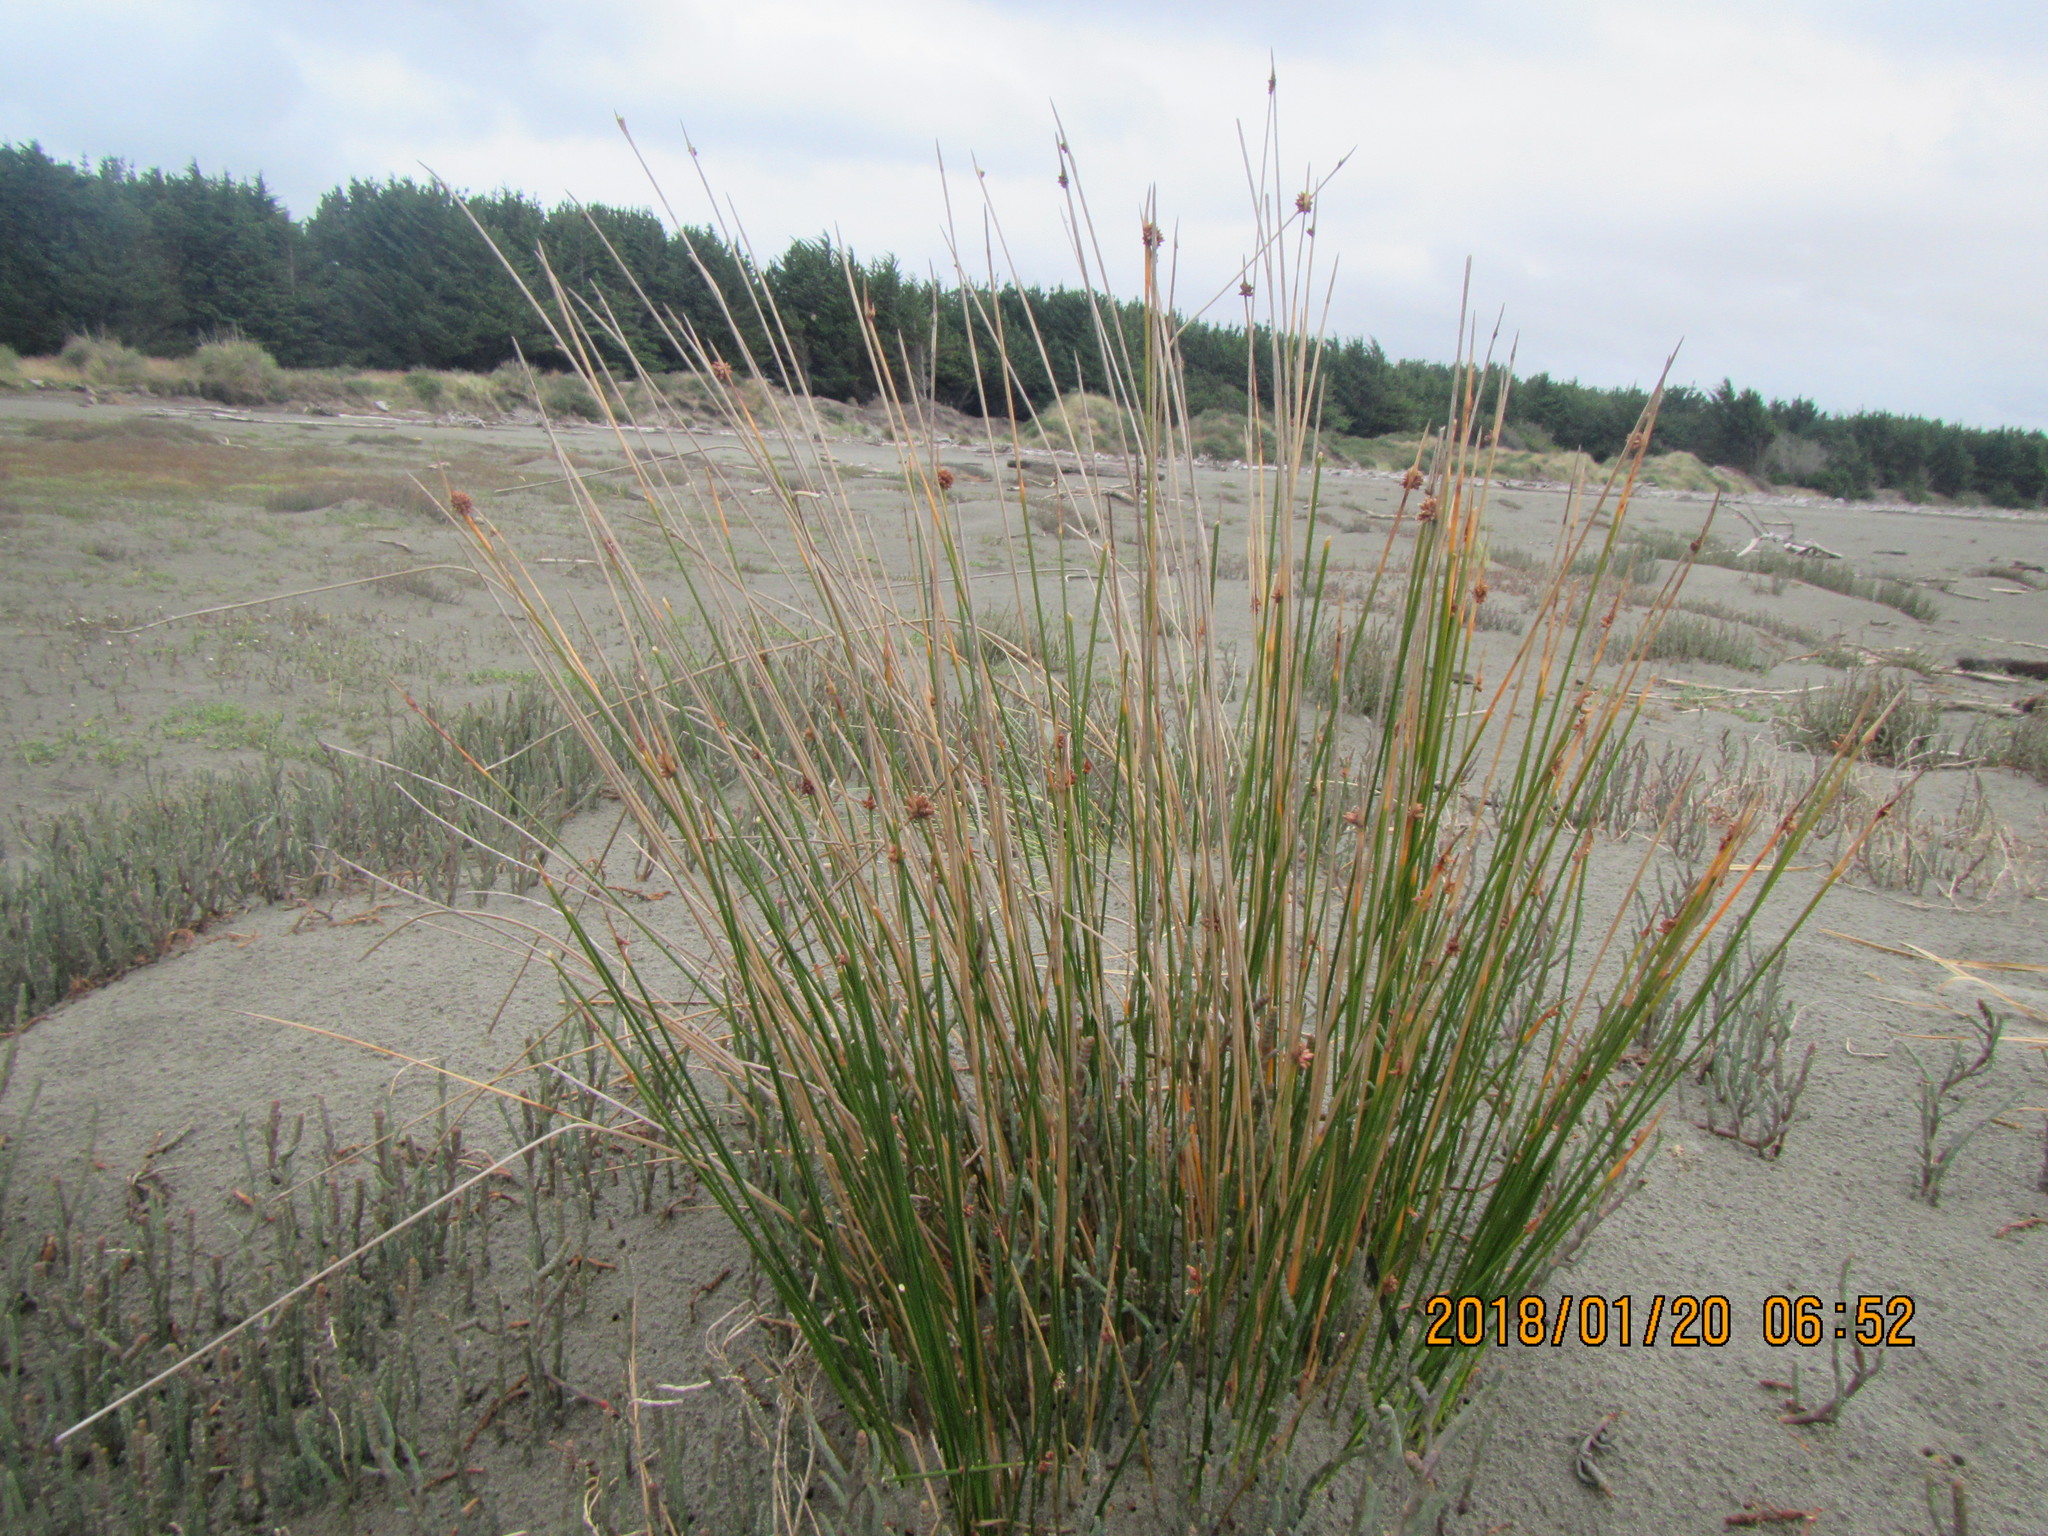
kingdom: Plantae
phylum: Tracheophyta
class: Liliopsida
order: Poales
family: Cyperaceae
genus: Ficinia
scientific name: Ficinia nodosa
